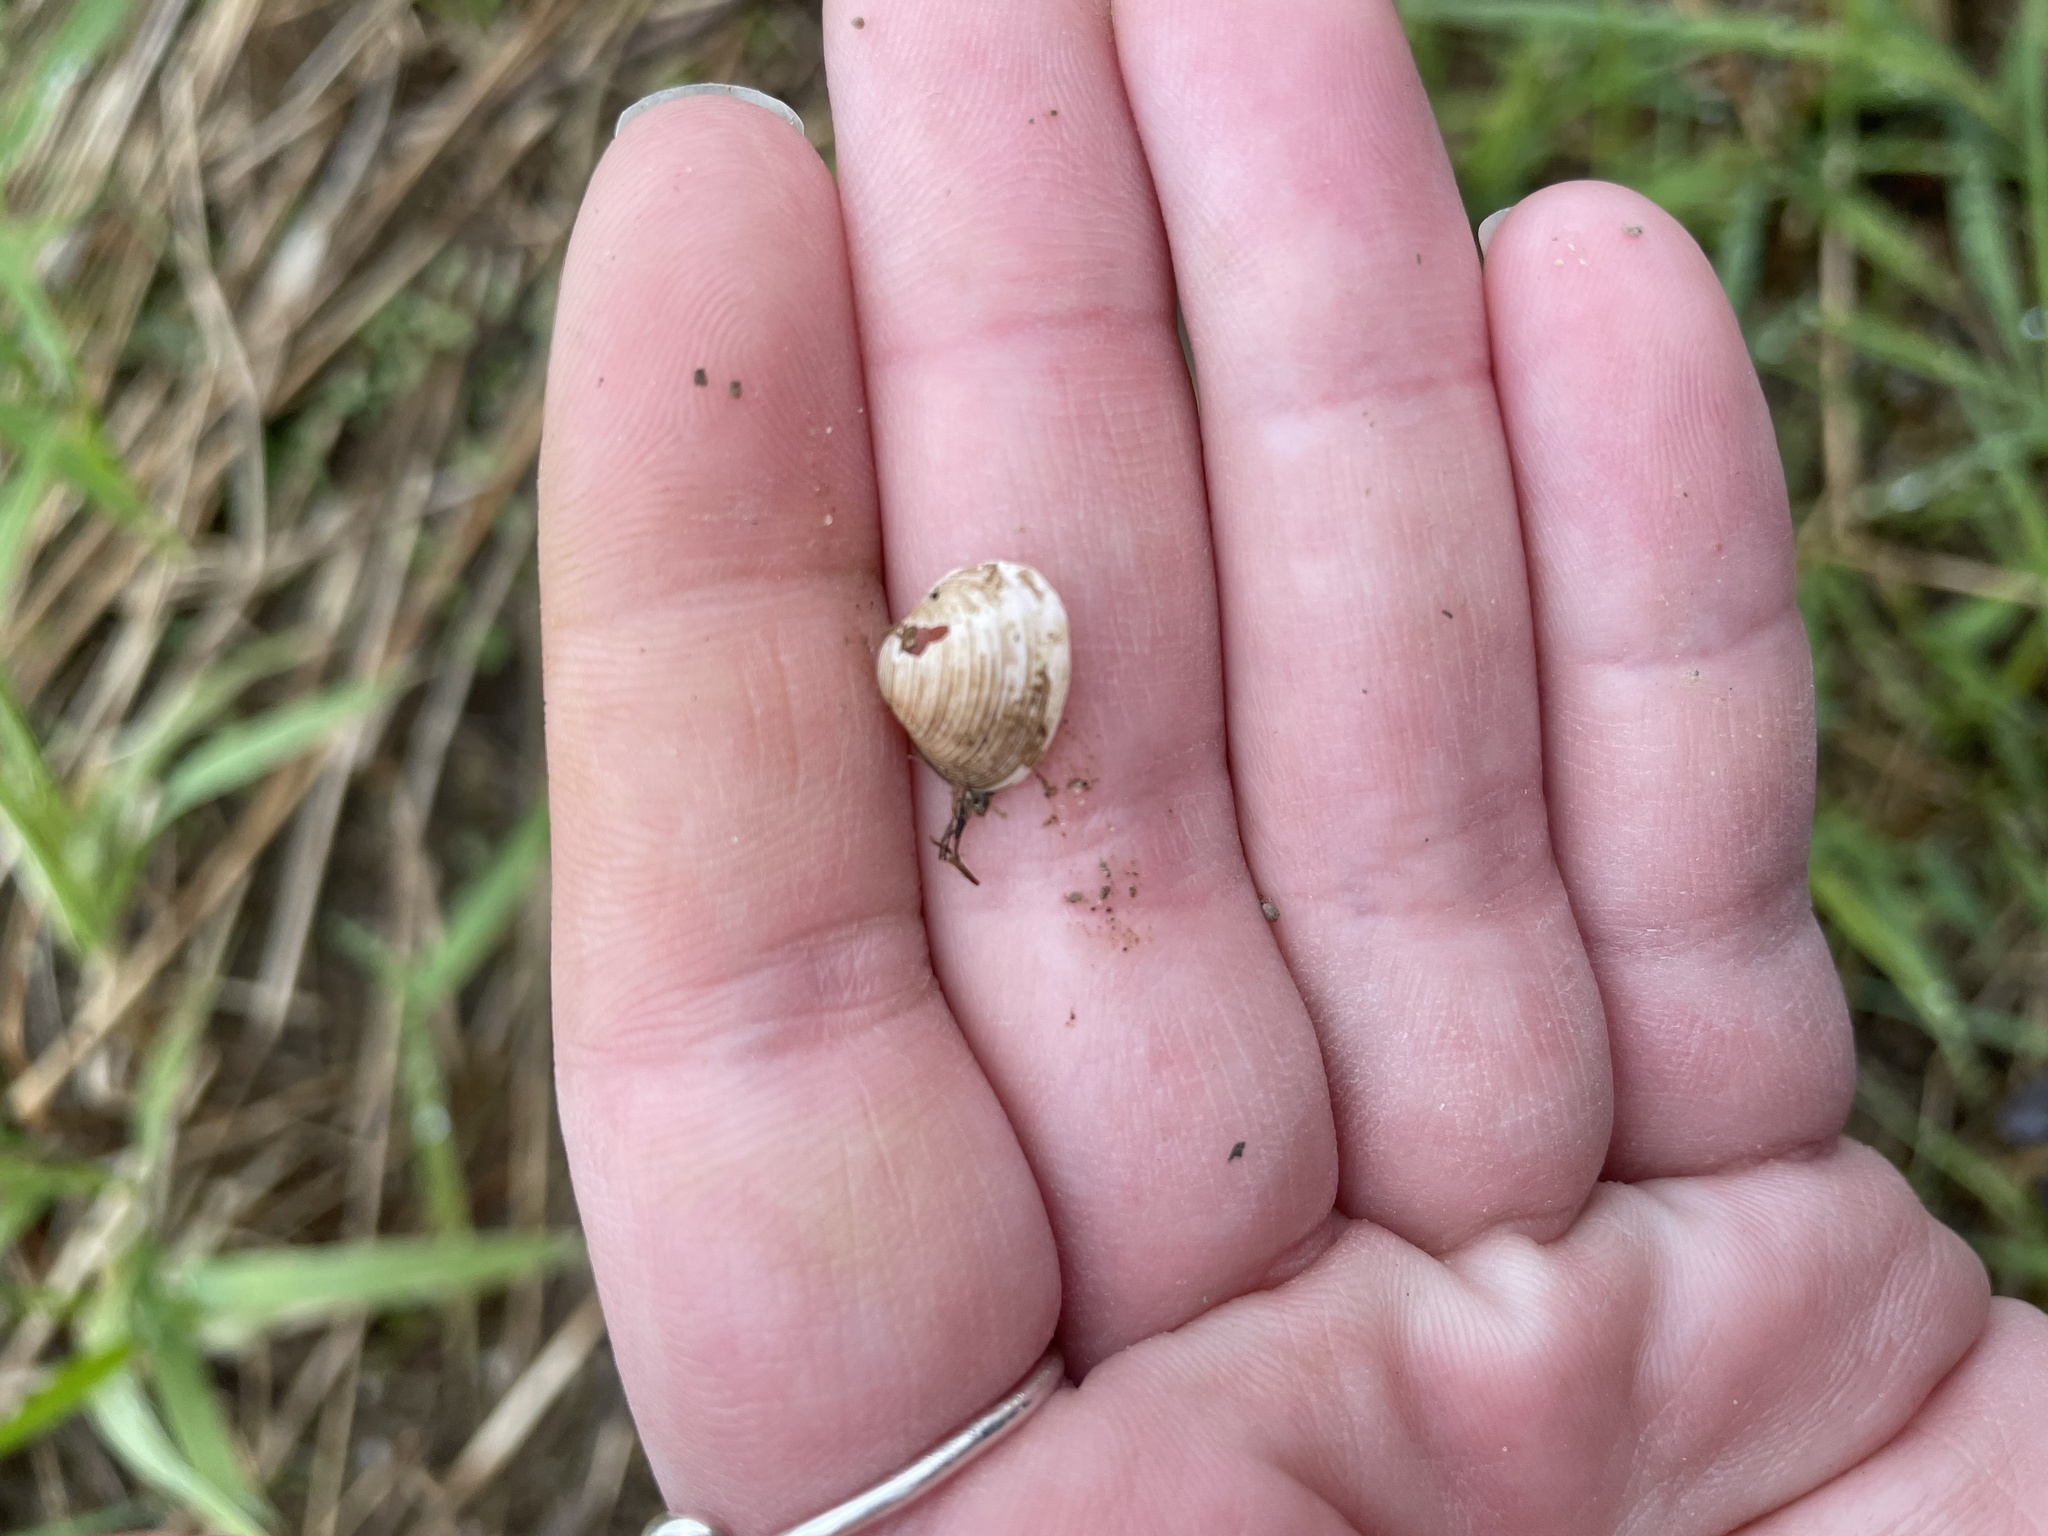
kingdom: Animalia
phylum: Mollusca
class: Bivalvia
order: Sphaeriida
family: Sphaeriidae
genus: Sphaerium
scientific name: Sphaerium striatinum
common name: Striated fingernailclam
